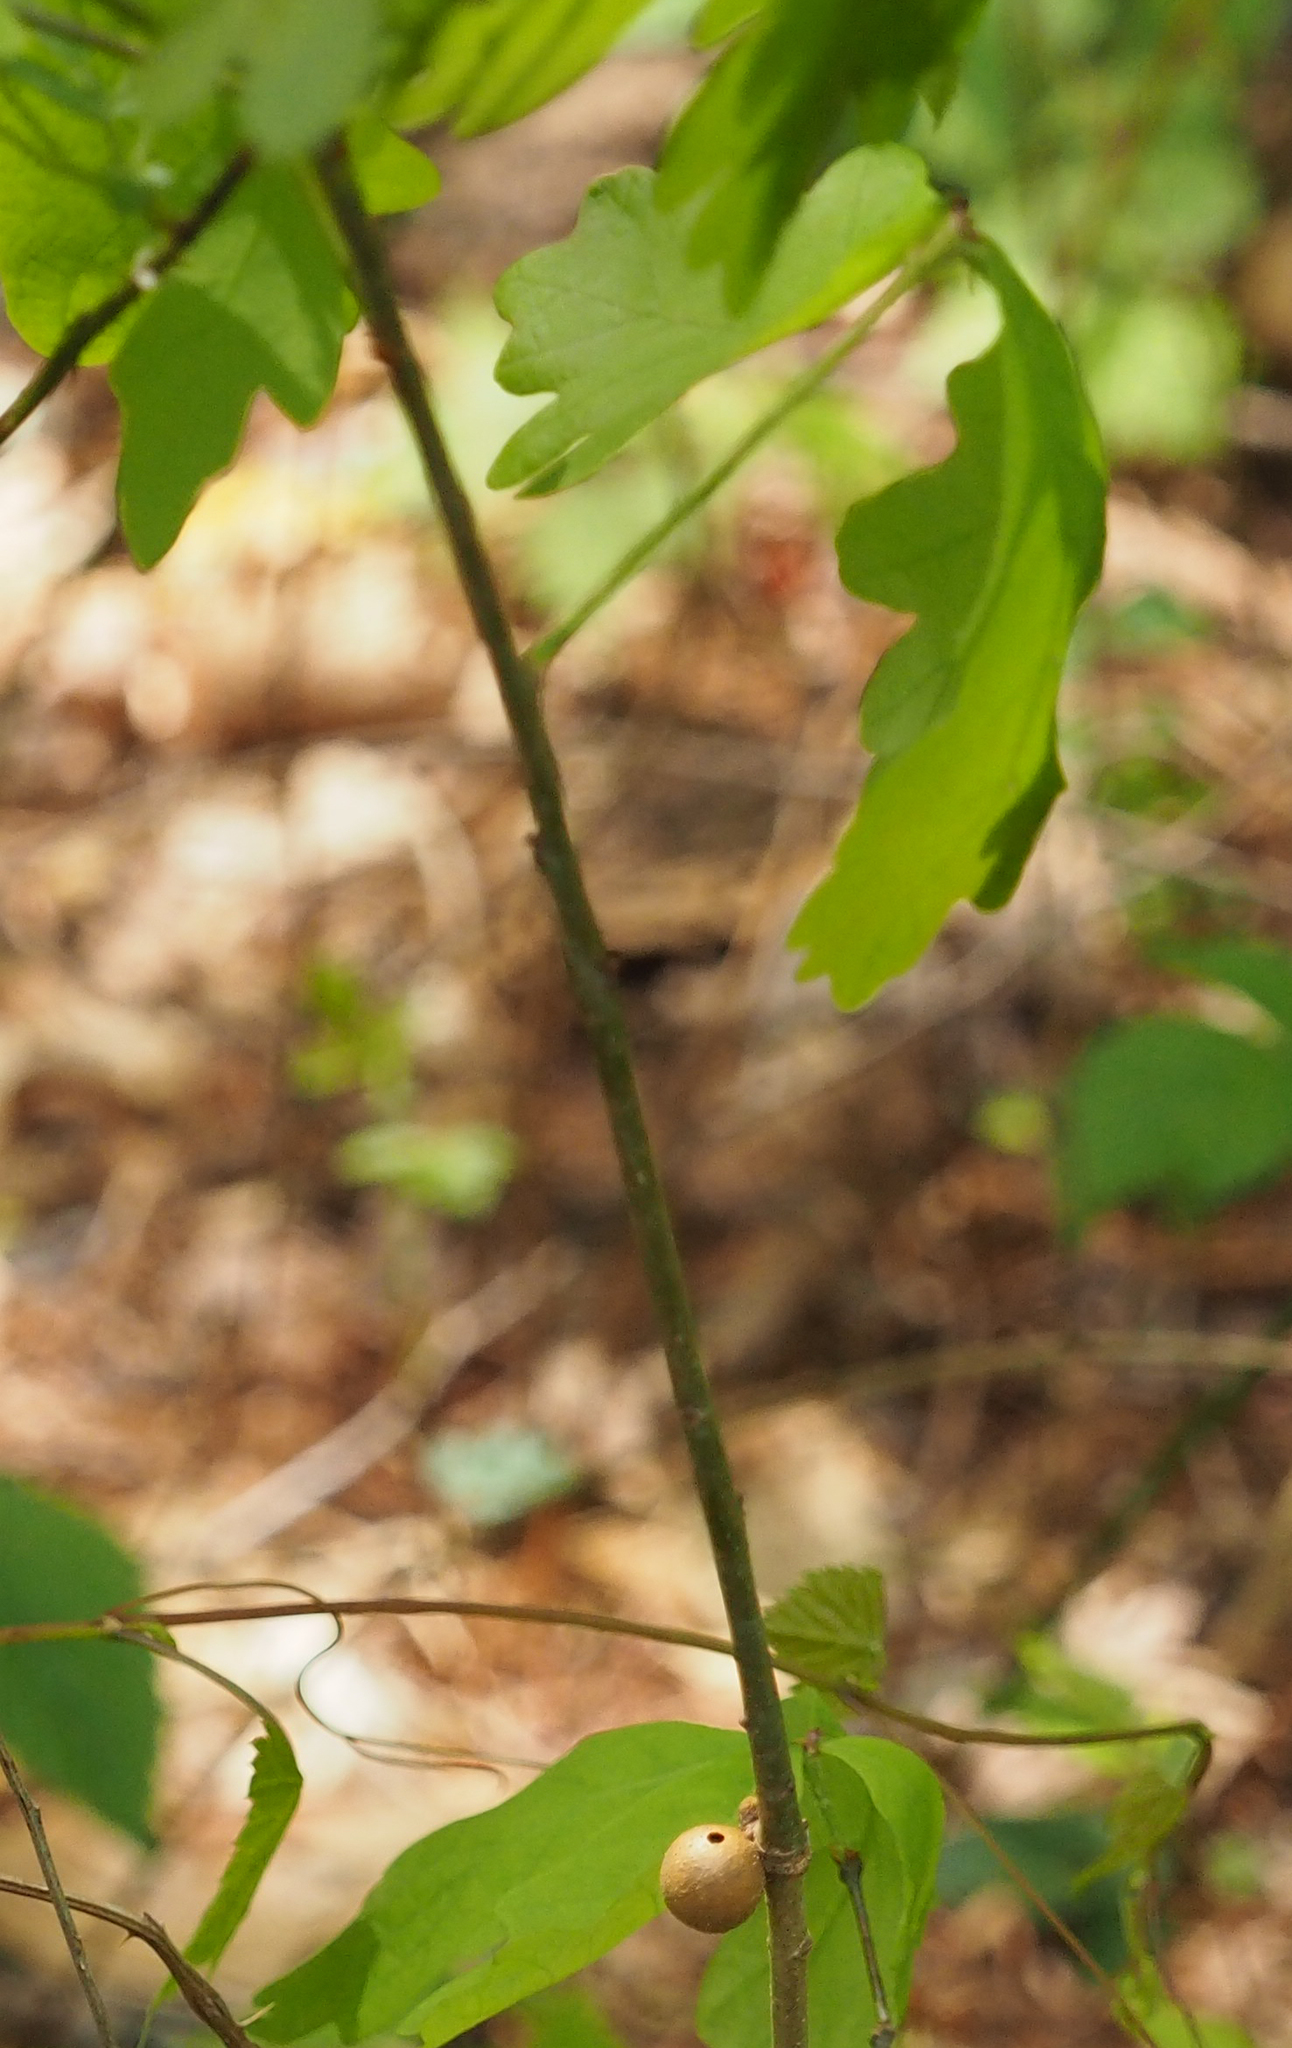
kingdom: Animalia
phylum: Arthropoda
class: Insecta
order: Hymenoptera
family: Cynipidae
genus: Disholcaspis
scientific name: Disholcaspis quercusglobulus
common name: Round bullet gall wasp
